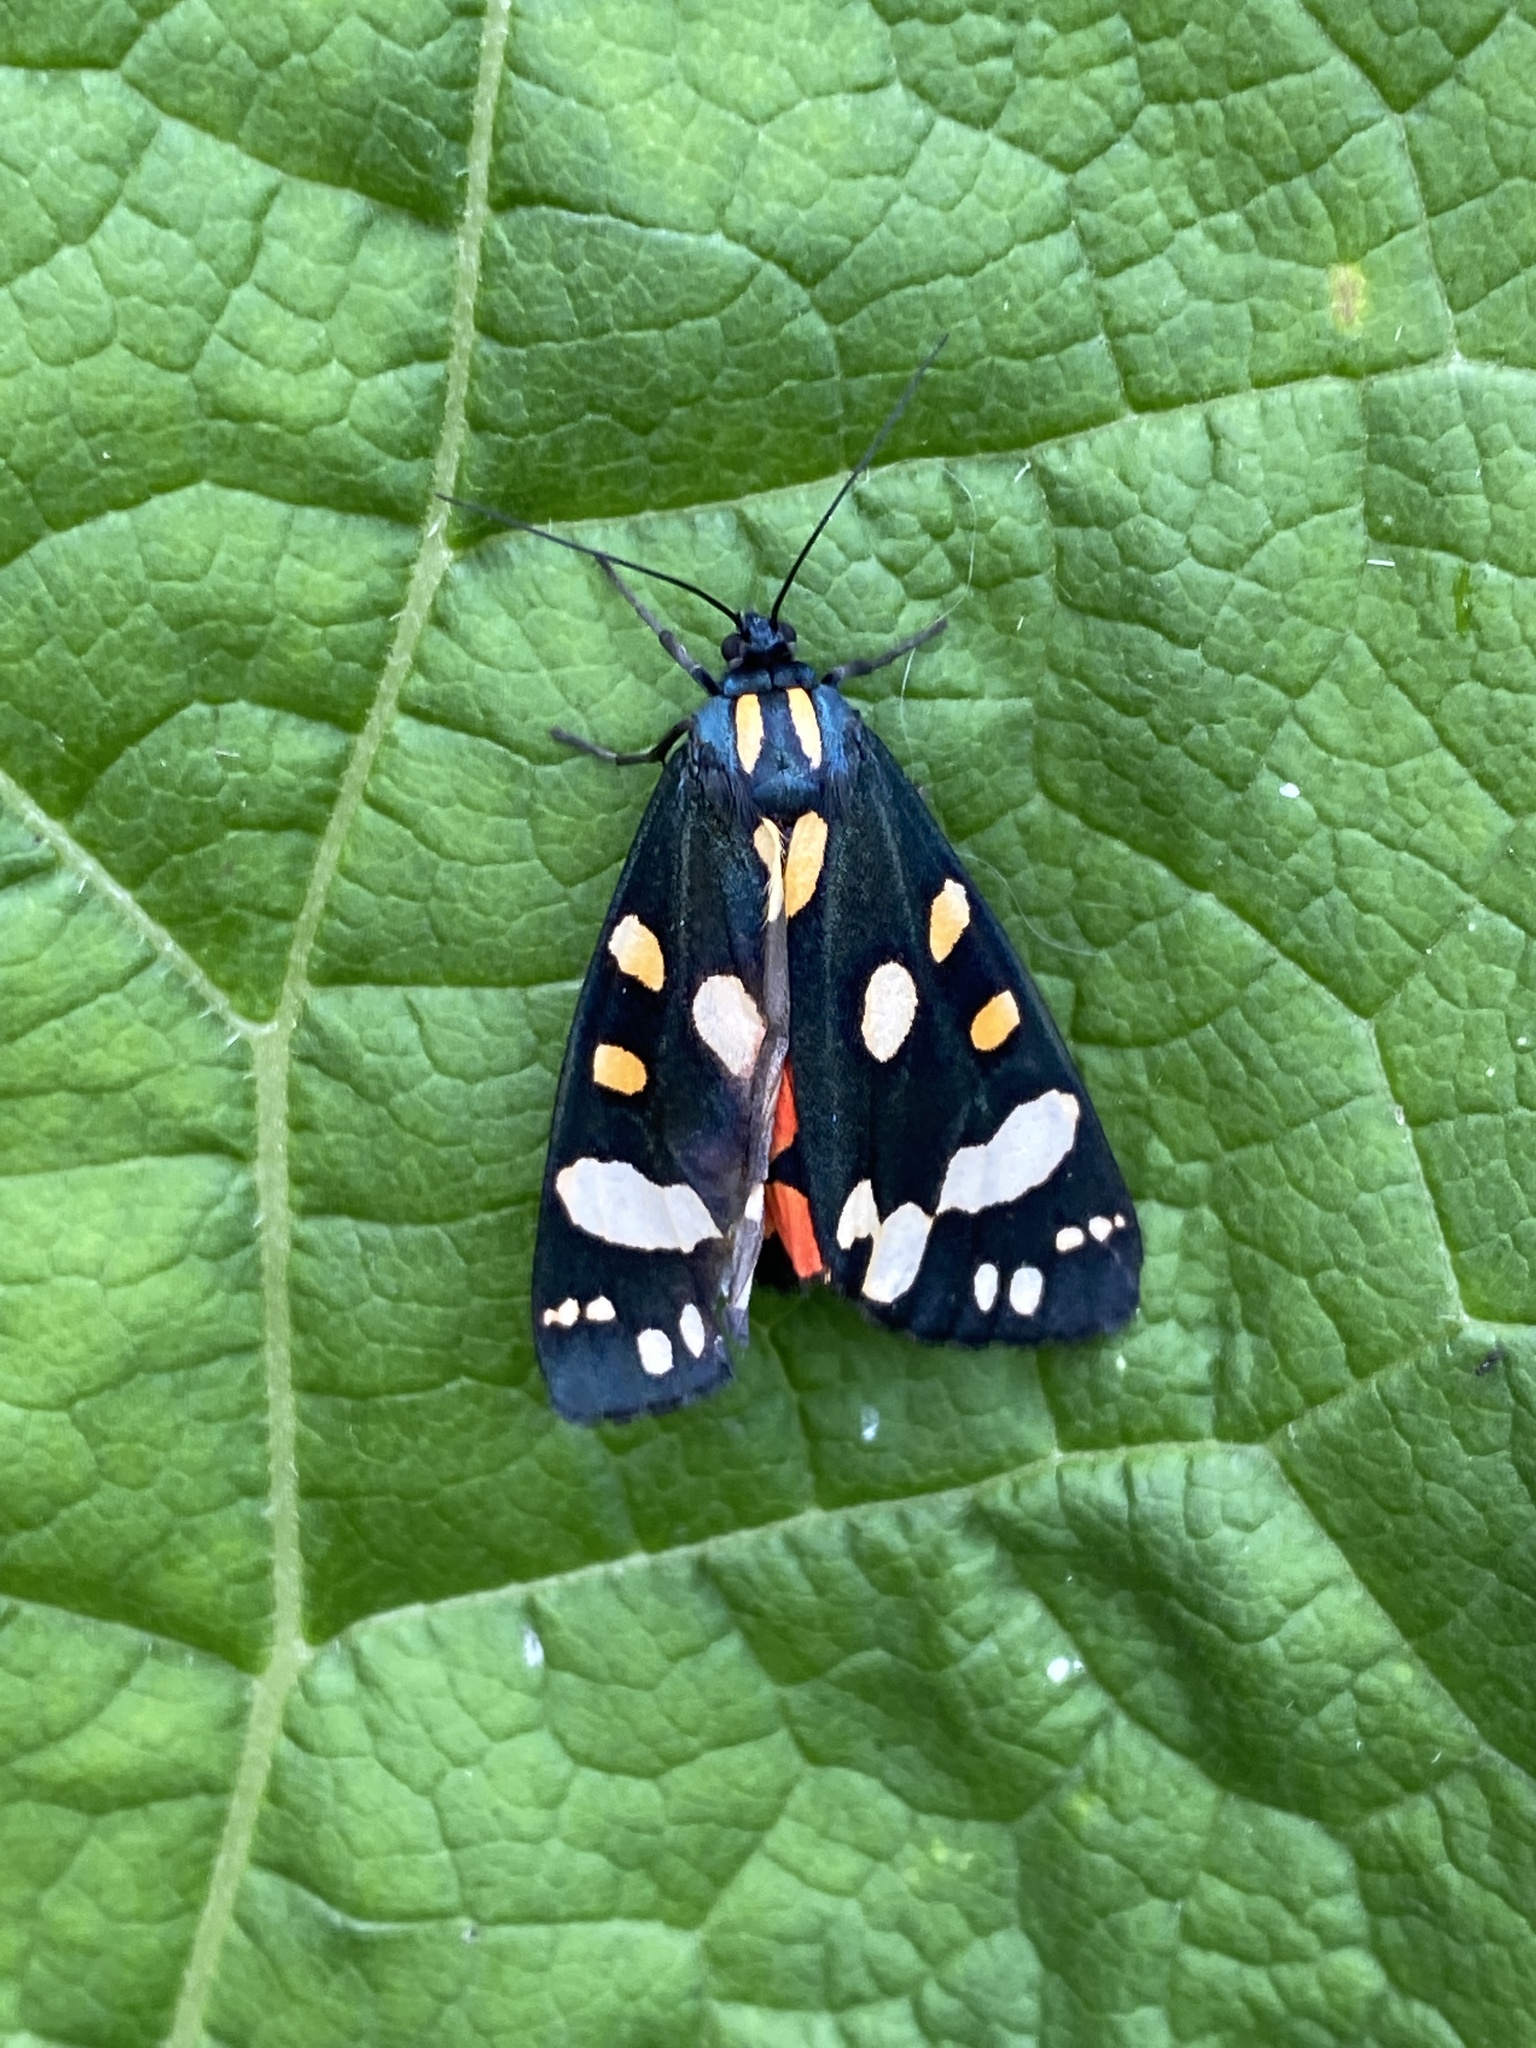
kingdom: Animalia
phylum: Arthropoda
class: Insecta
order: Lepidoptera
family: Erebidae
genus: Callimorpha
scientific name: Callimorpha dominula
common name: Scarlet tiger
